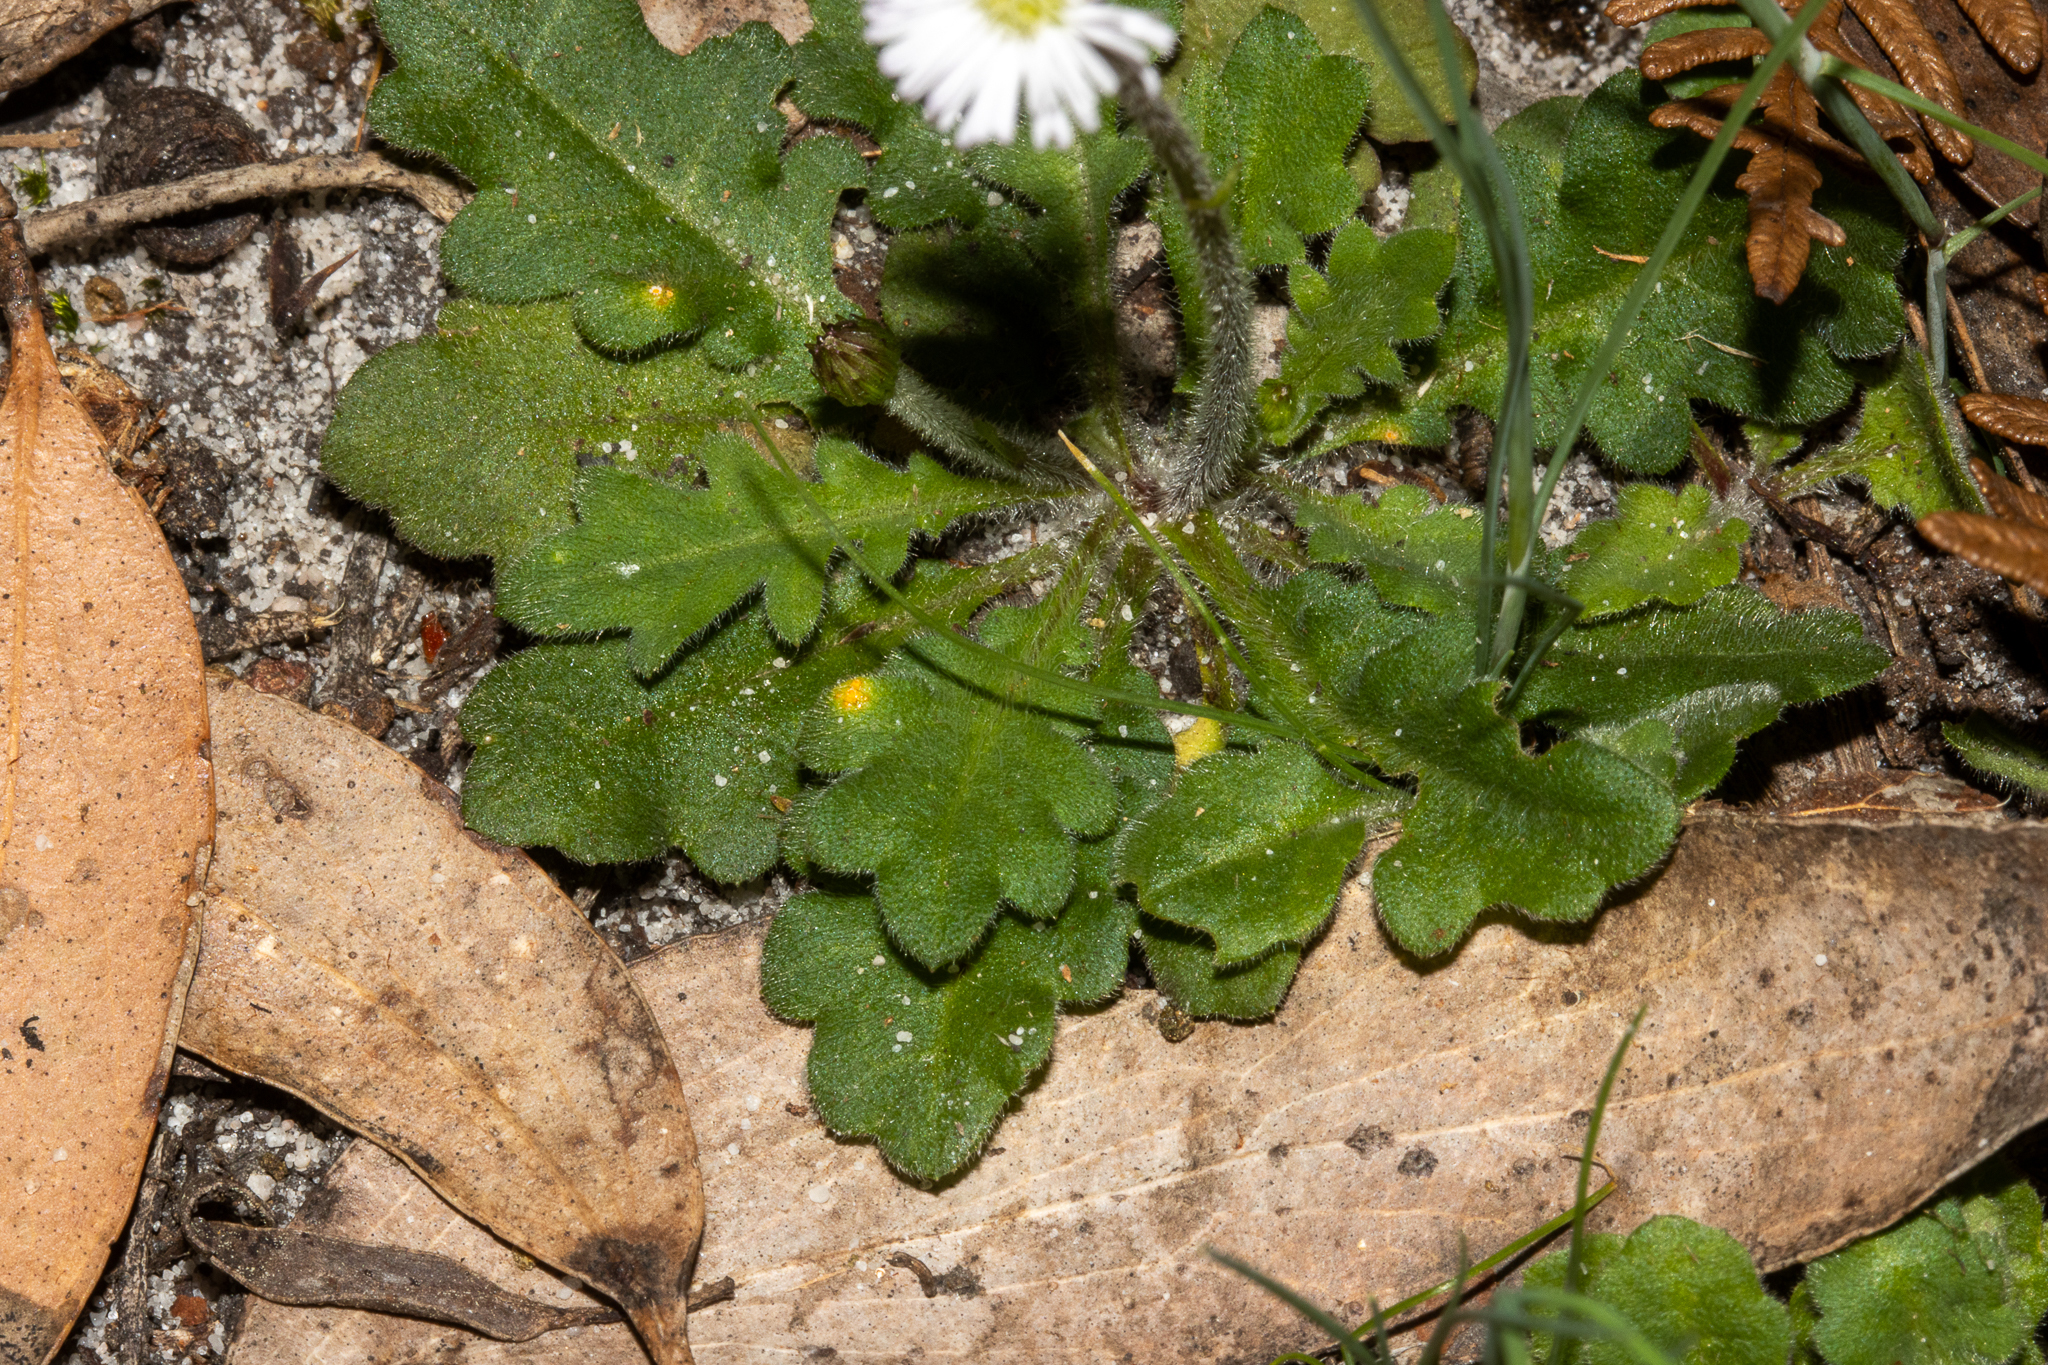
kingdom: Plantae
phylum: Tracheophyta
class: Magnoliopsida
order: Asterales
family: Asteraceae
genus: Lagenophora
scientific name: Lagenophora stipitata
